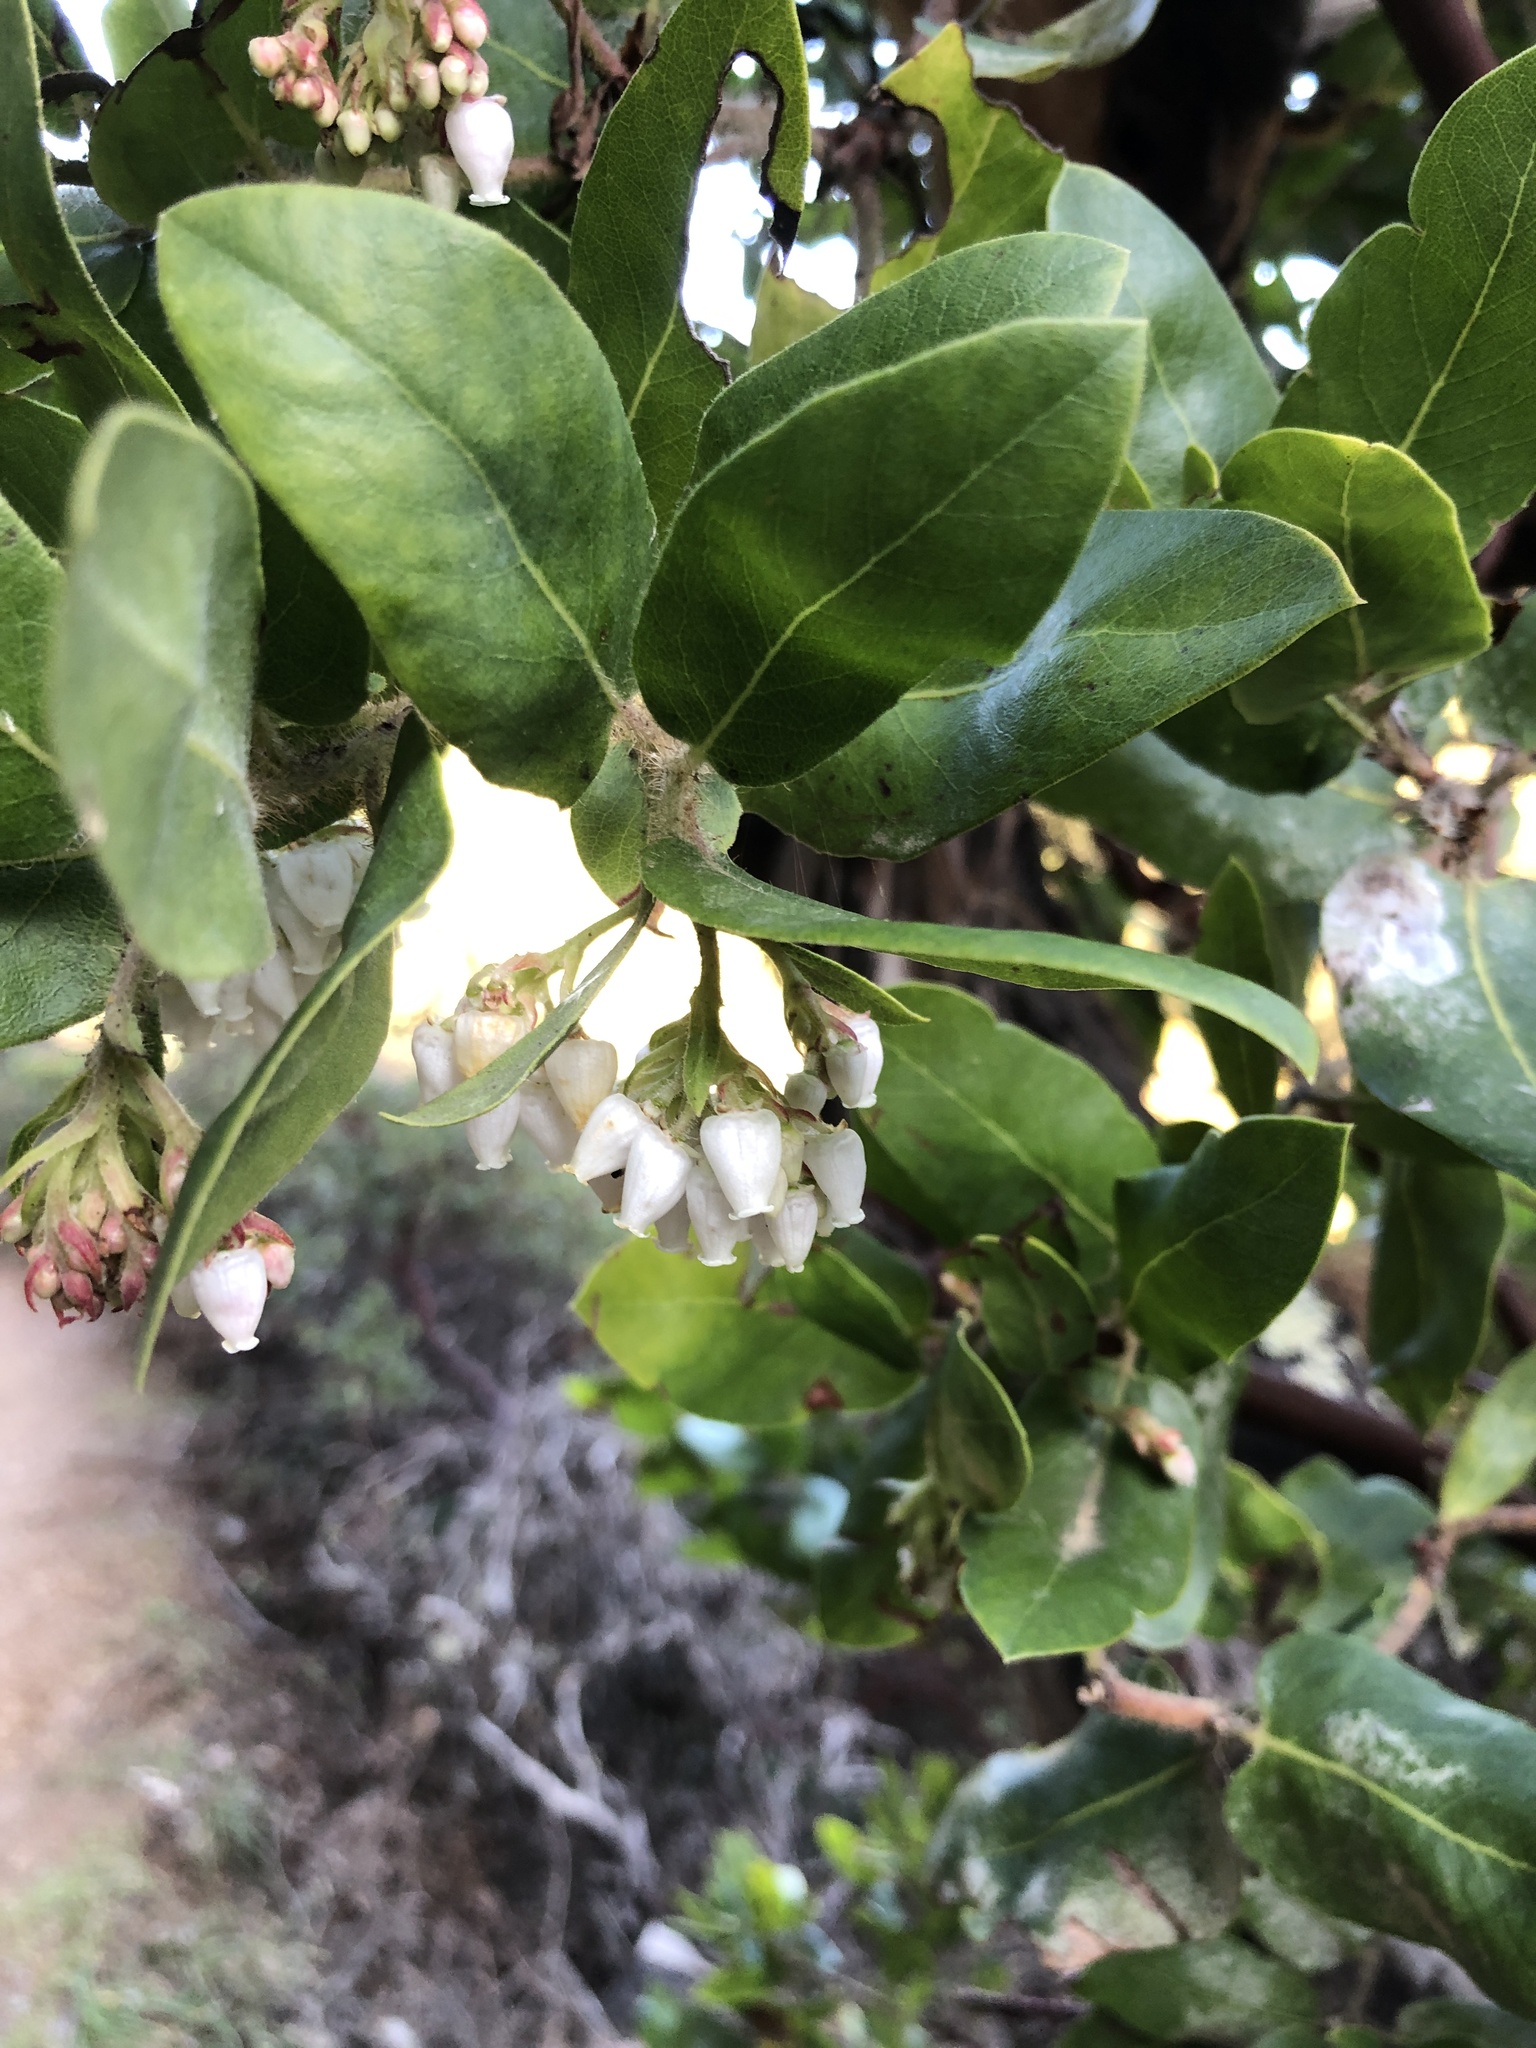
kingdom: Plantae
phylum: Tracheophyta
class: Magnoliopsida
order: Ericales
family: Ericaceae
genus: Arctostaphylos
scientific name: Arctostaphylos crustacea
